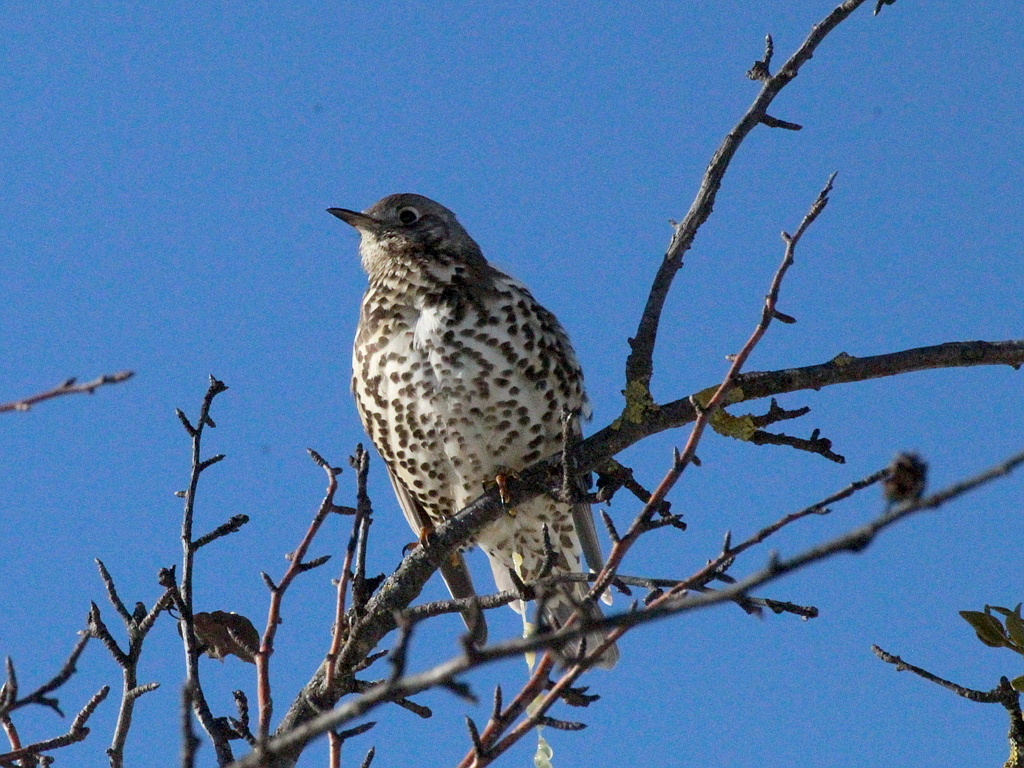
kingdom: Animalia
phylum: Chordata
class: Aves
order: Passeriformes
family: Turdidae
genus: Turdus
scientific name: Turdus viscivorus
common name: Mistle thrush
